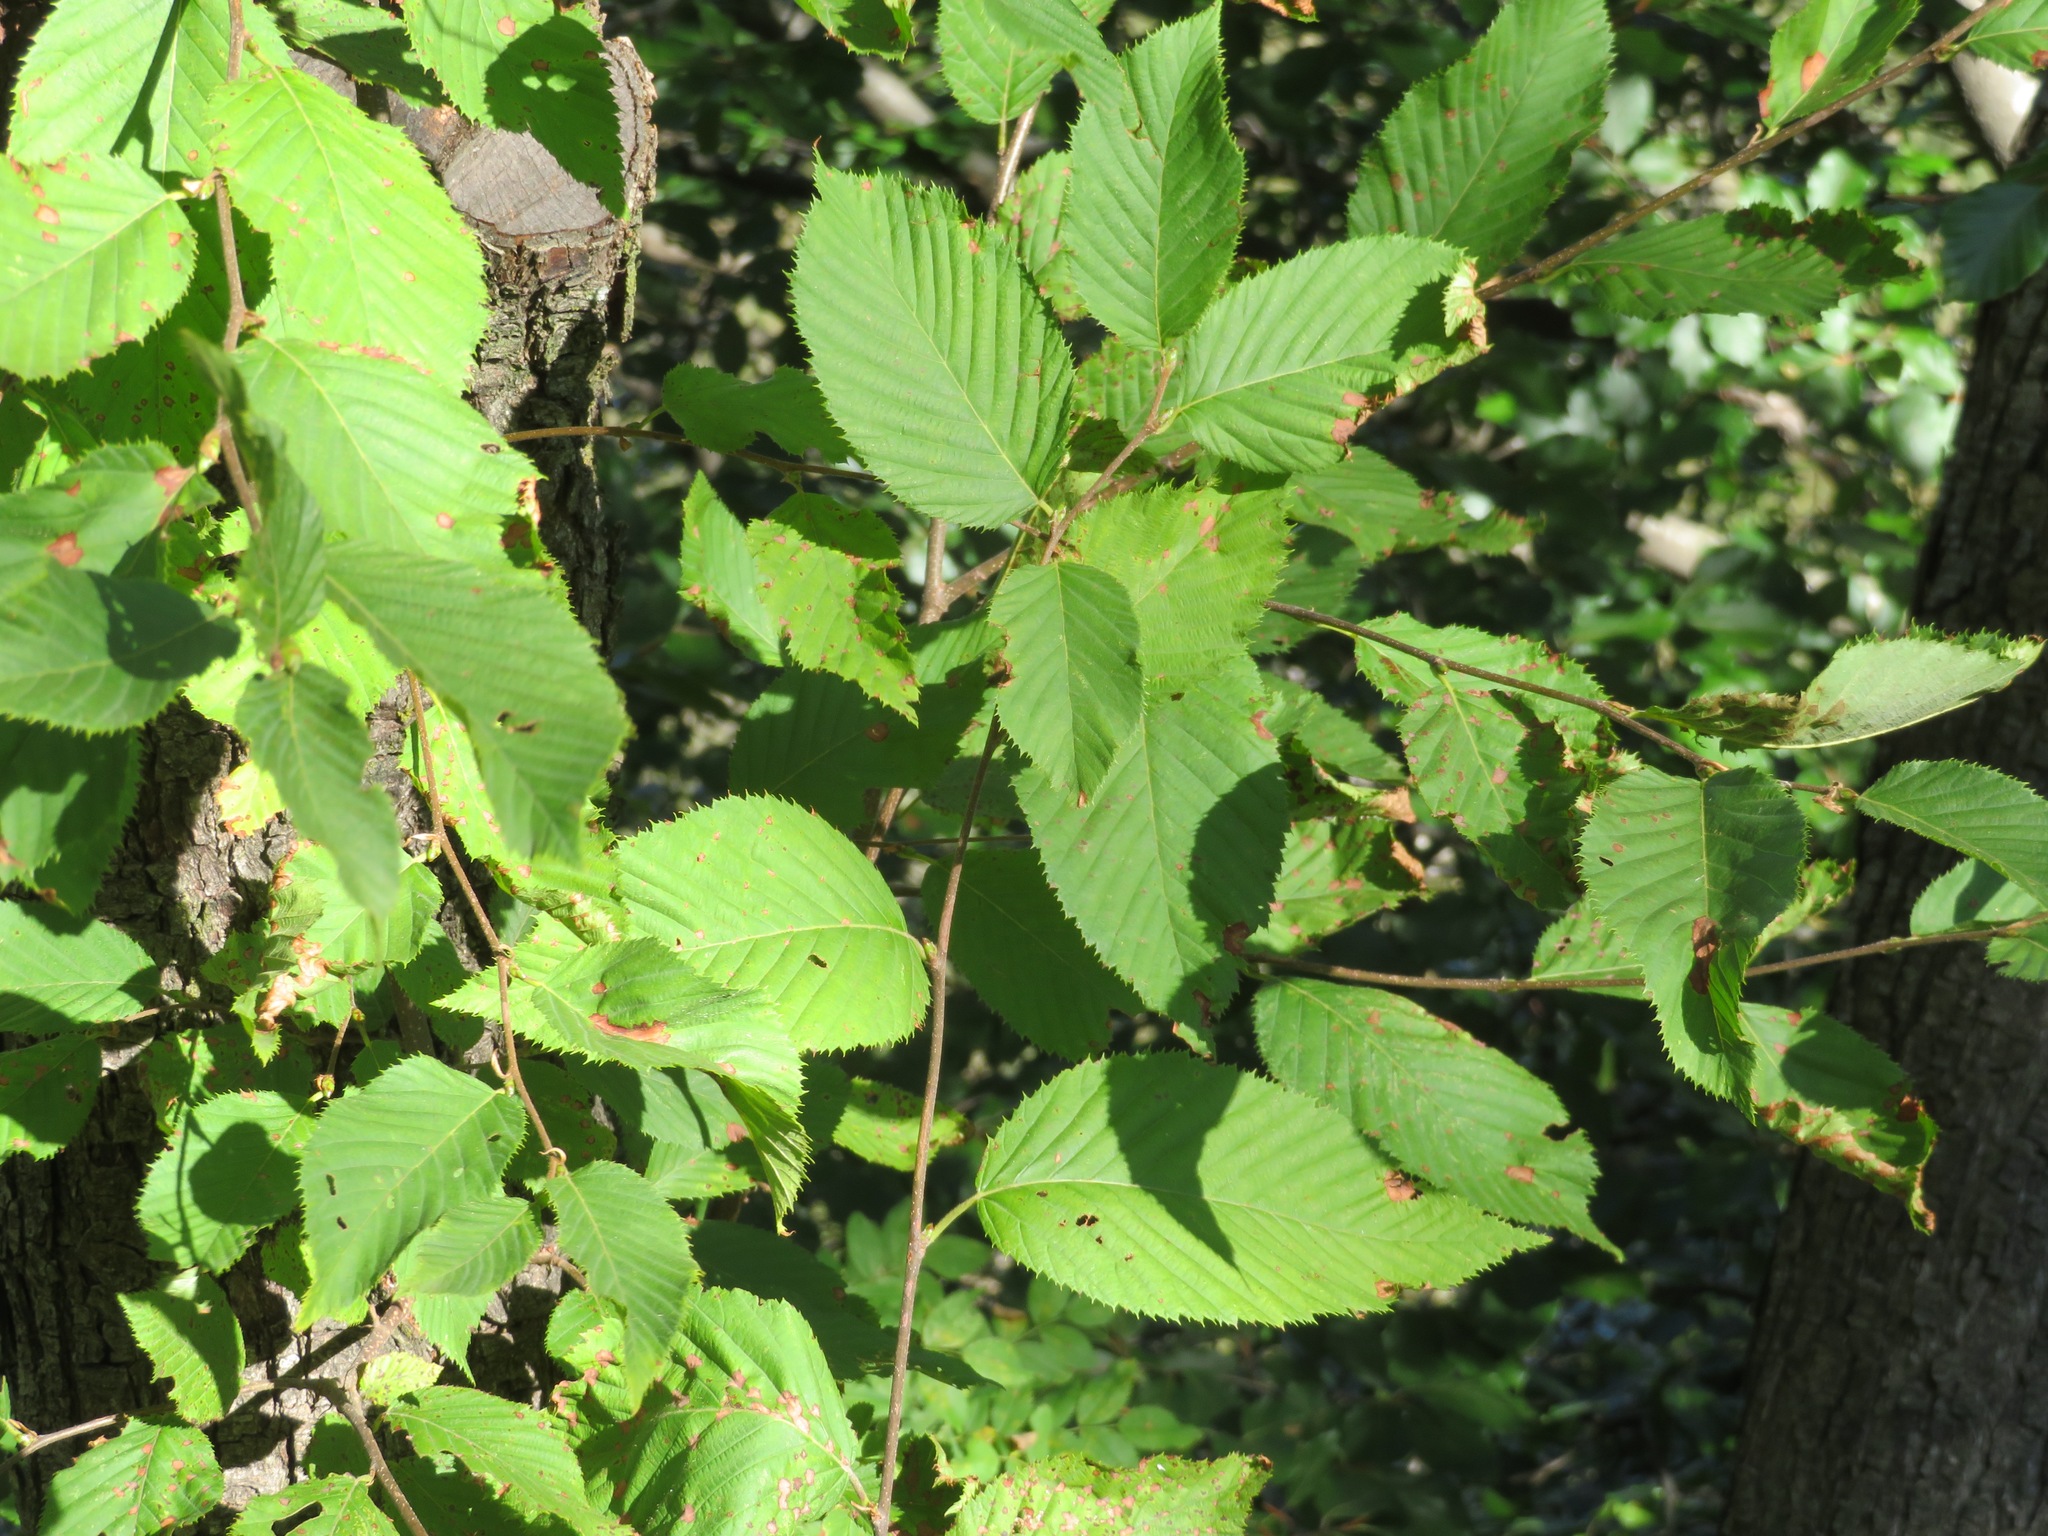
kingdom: Plantae
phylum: Tracheophyta
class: Magnoliopsida
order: Fagales
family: Betulaceae
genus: Ostrya
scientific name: Ostrya carpinifolia
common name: European hop-hornbeam
